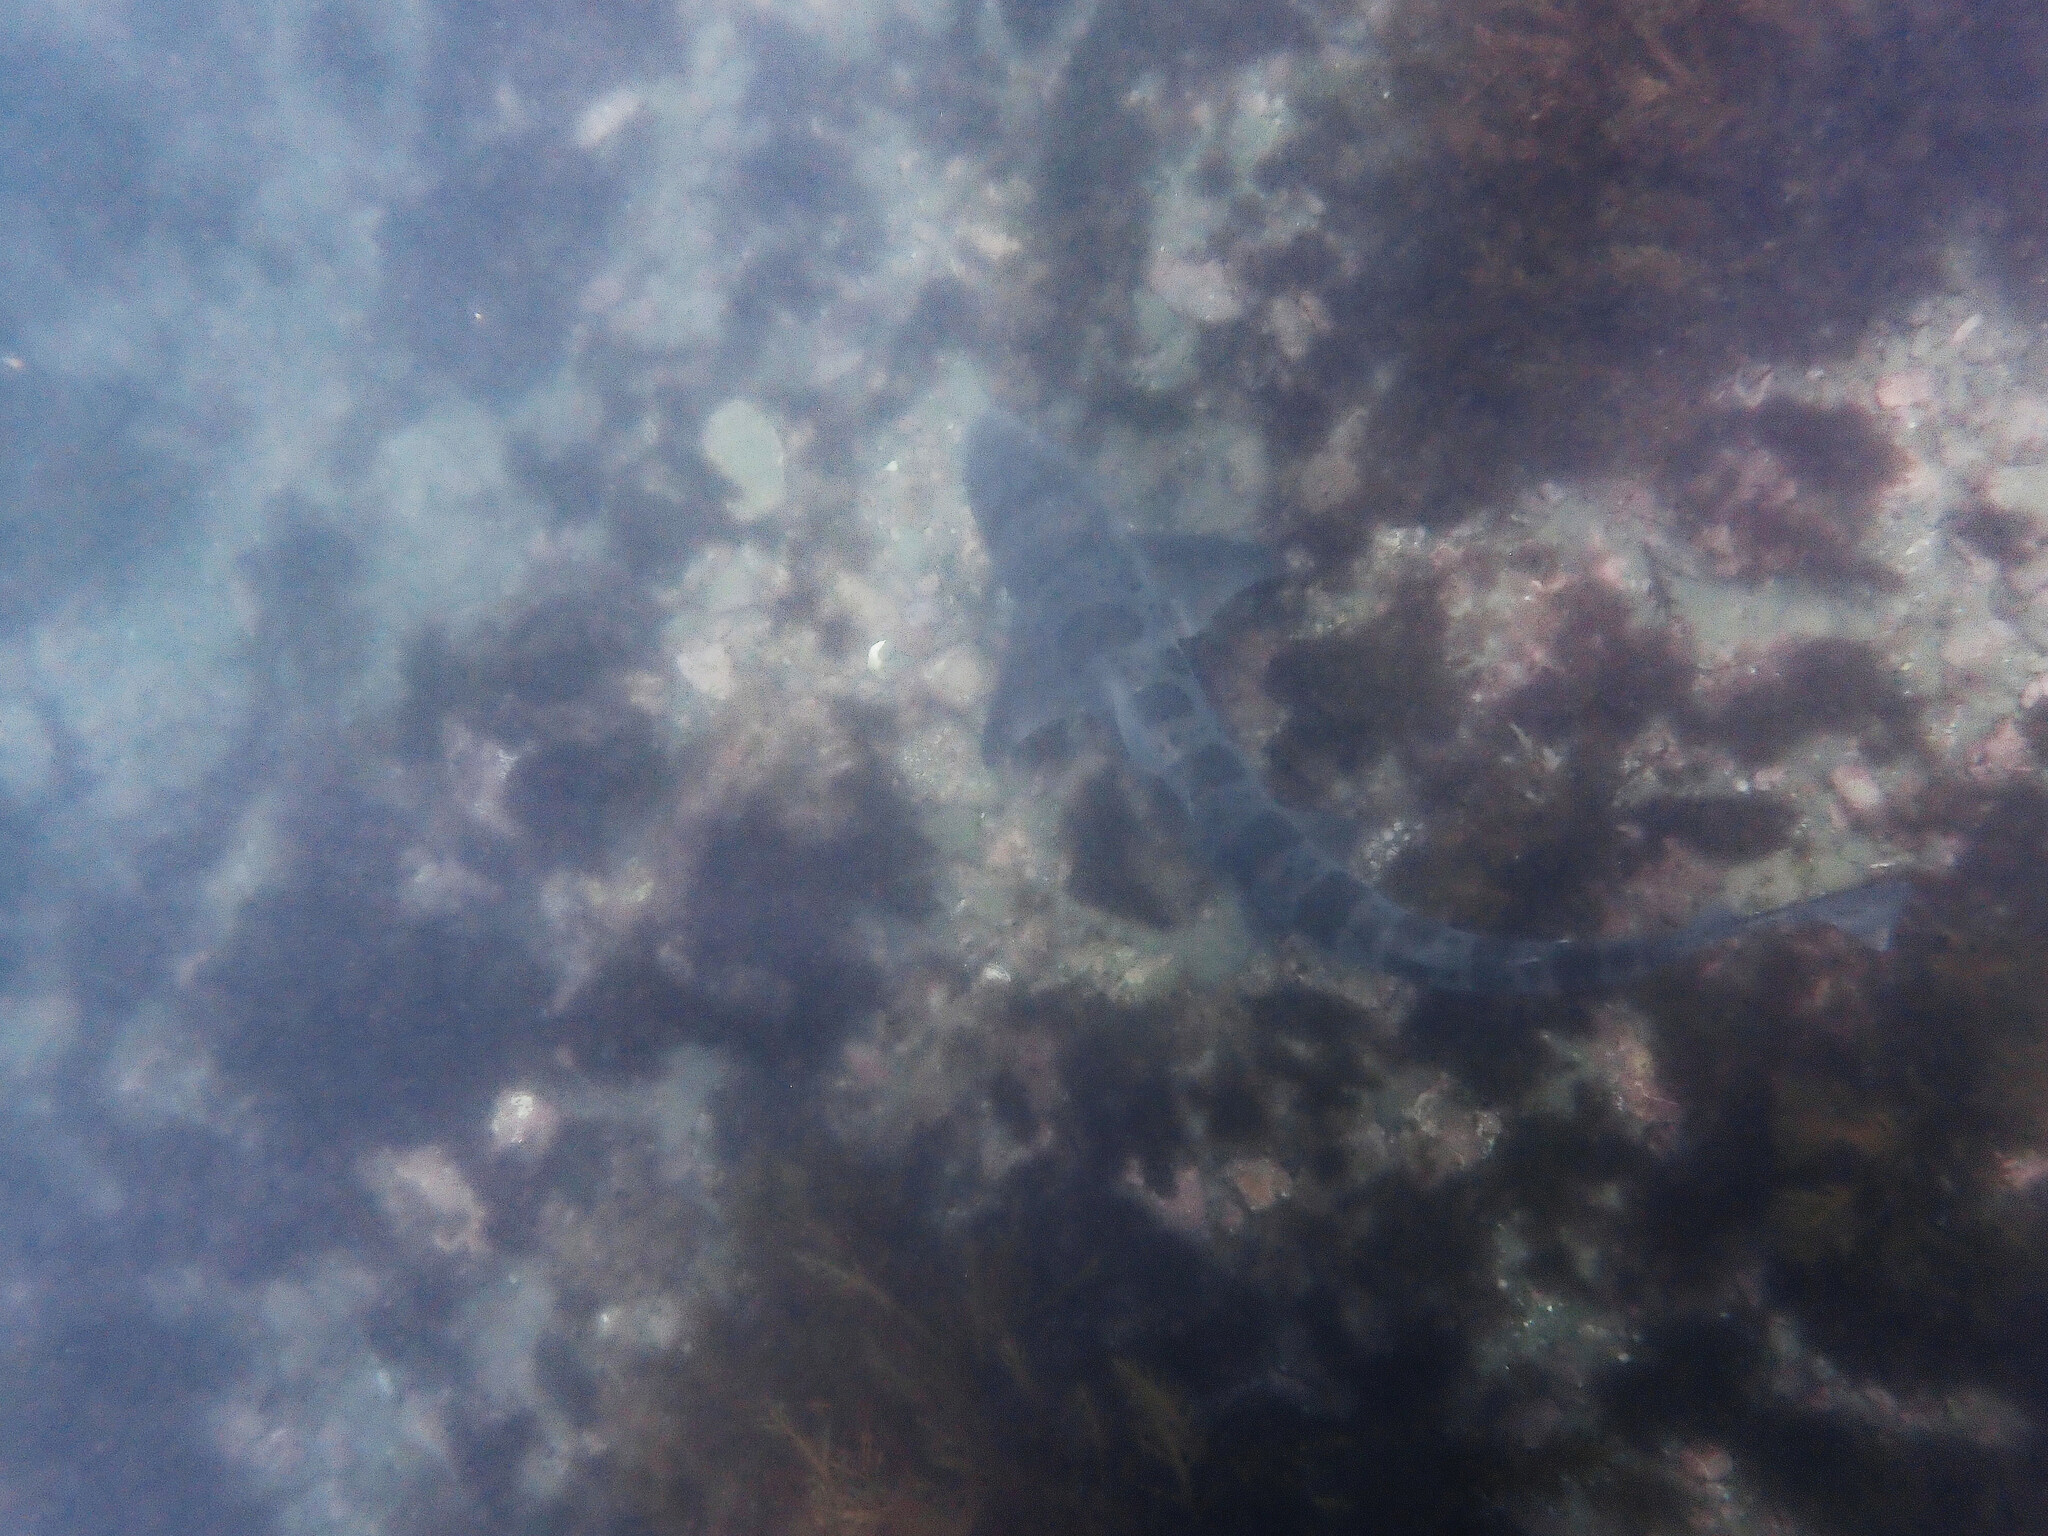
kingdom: Animalia
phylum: Chordata
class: Elasmobranchii
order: Carcharhiniformes
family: Triakidae
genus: Triakis
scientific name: Triakis semifasciata
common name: Leopard shark
